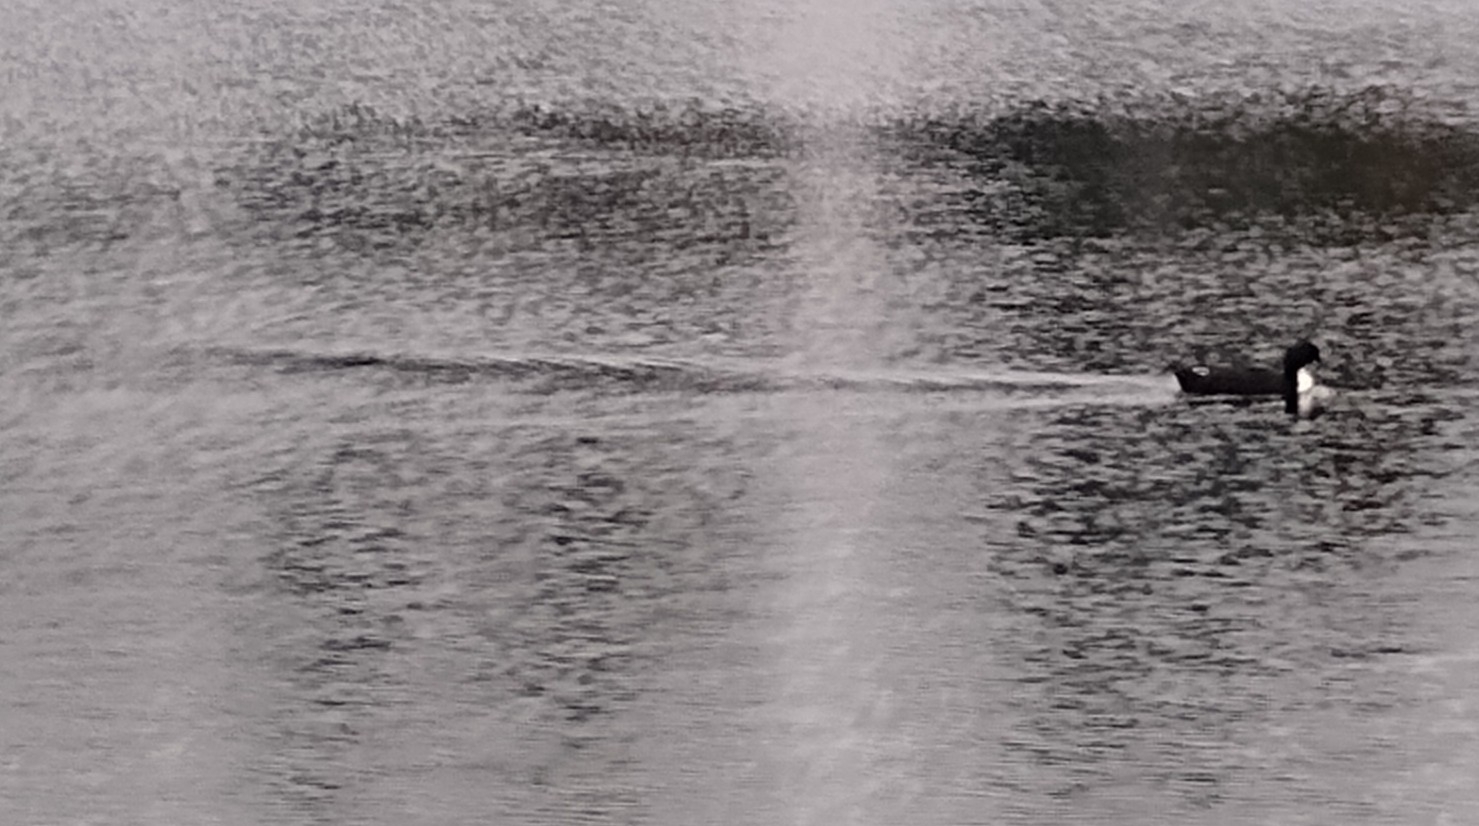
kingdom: Animalia
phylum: Chordata
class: Aves
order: Anseriformes
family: Anatidae
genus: Anas
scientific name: Anas platyrhynchos
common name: Mallard
